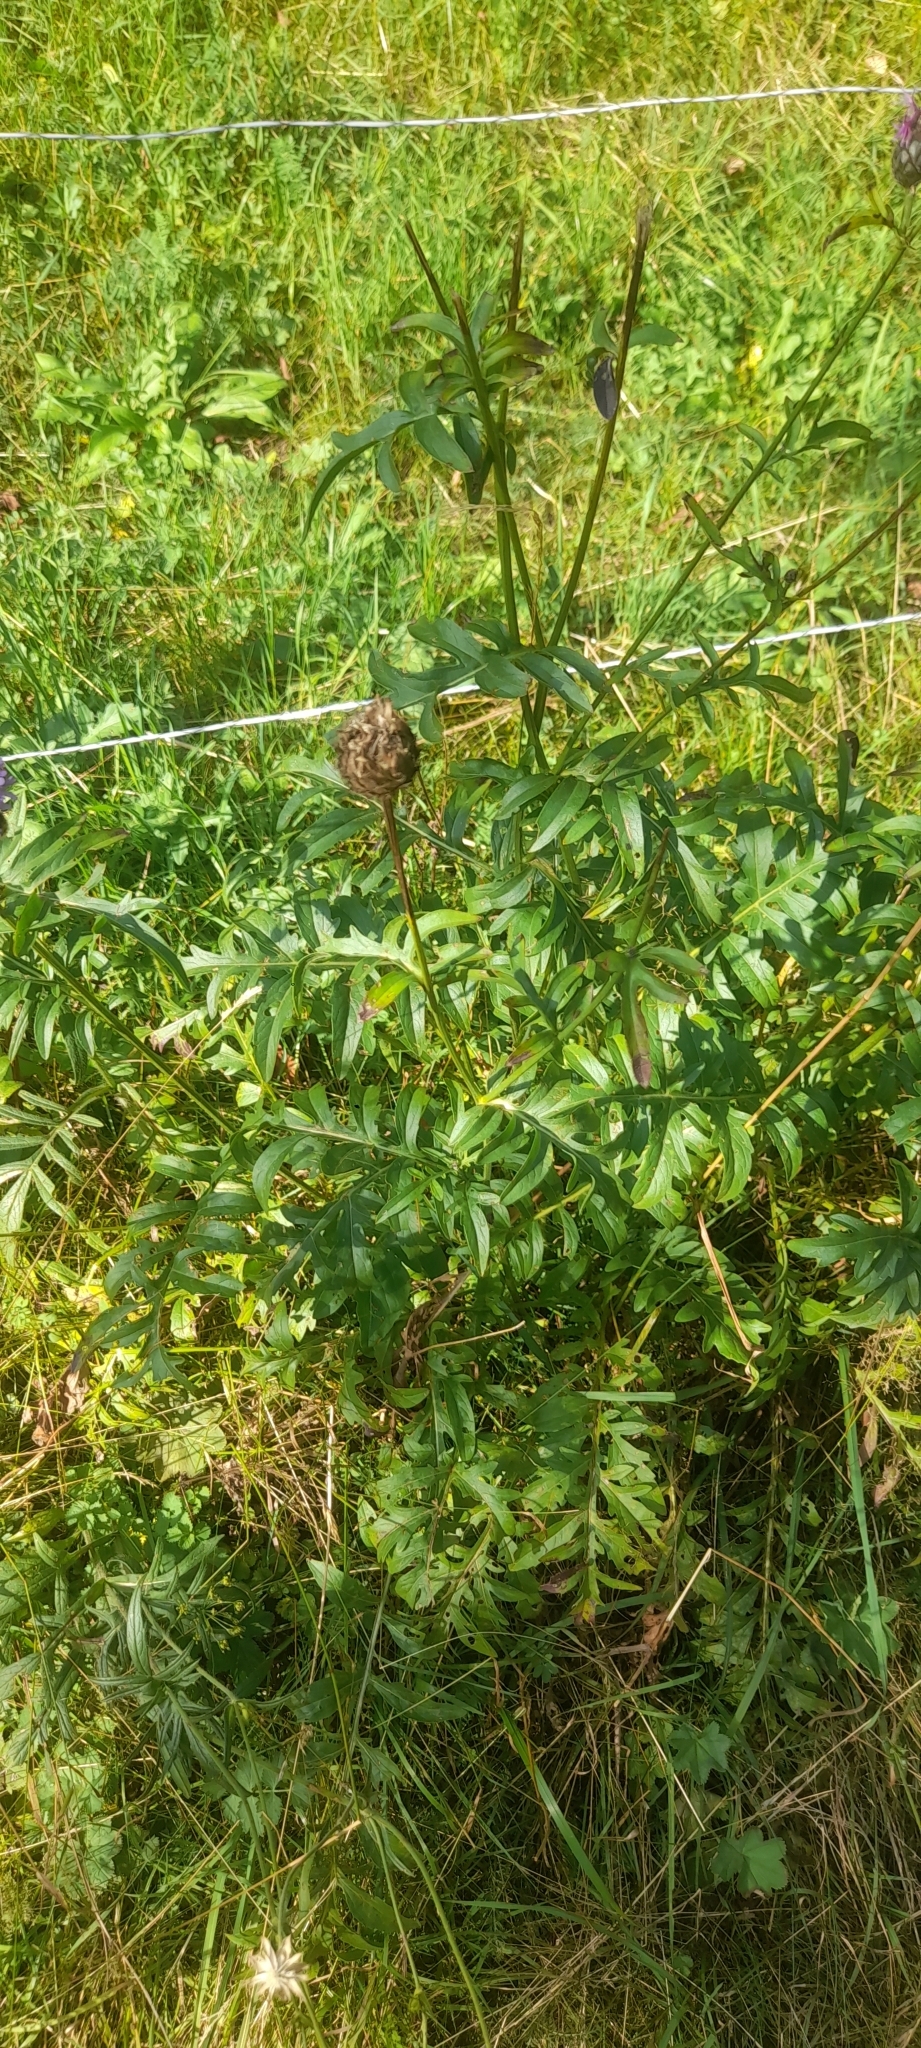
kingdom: Plantae
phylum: Tracheophyta
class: Magnoliopsida
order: Asterales
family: Asteraceae
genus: Centaurea
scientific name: Centaurea scabiosa
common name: Greater knapweed
